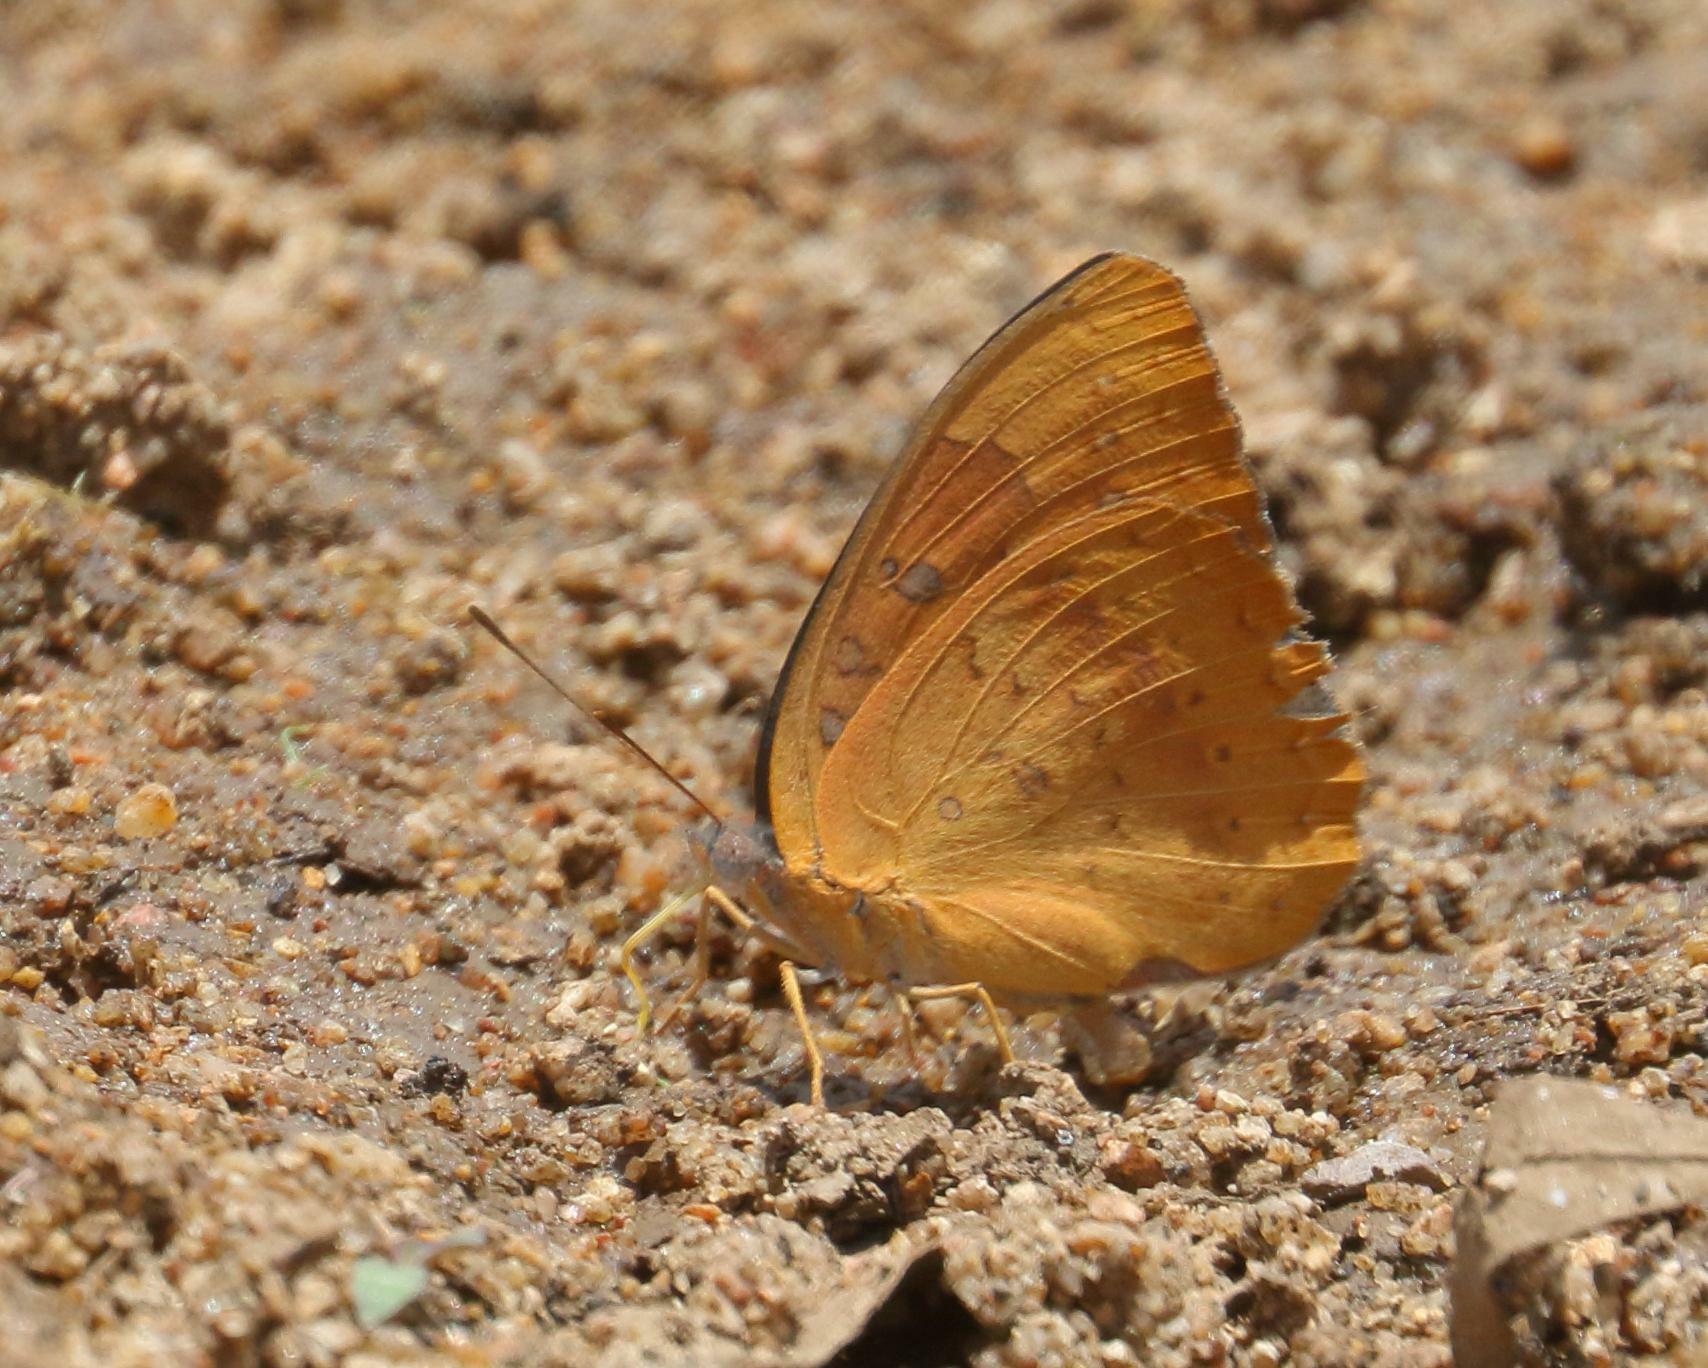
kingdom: Animalia
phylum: Arthropoda
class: Insecta
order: Lepidoptera
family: Nymphalidae
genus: Hamanumida
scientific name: Hamanumida daedalus
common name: Guinea-fowl butterfly
